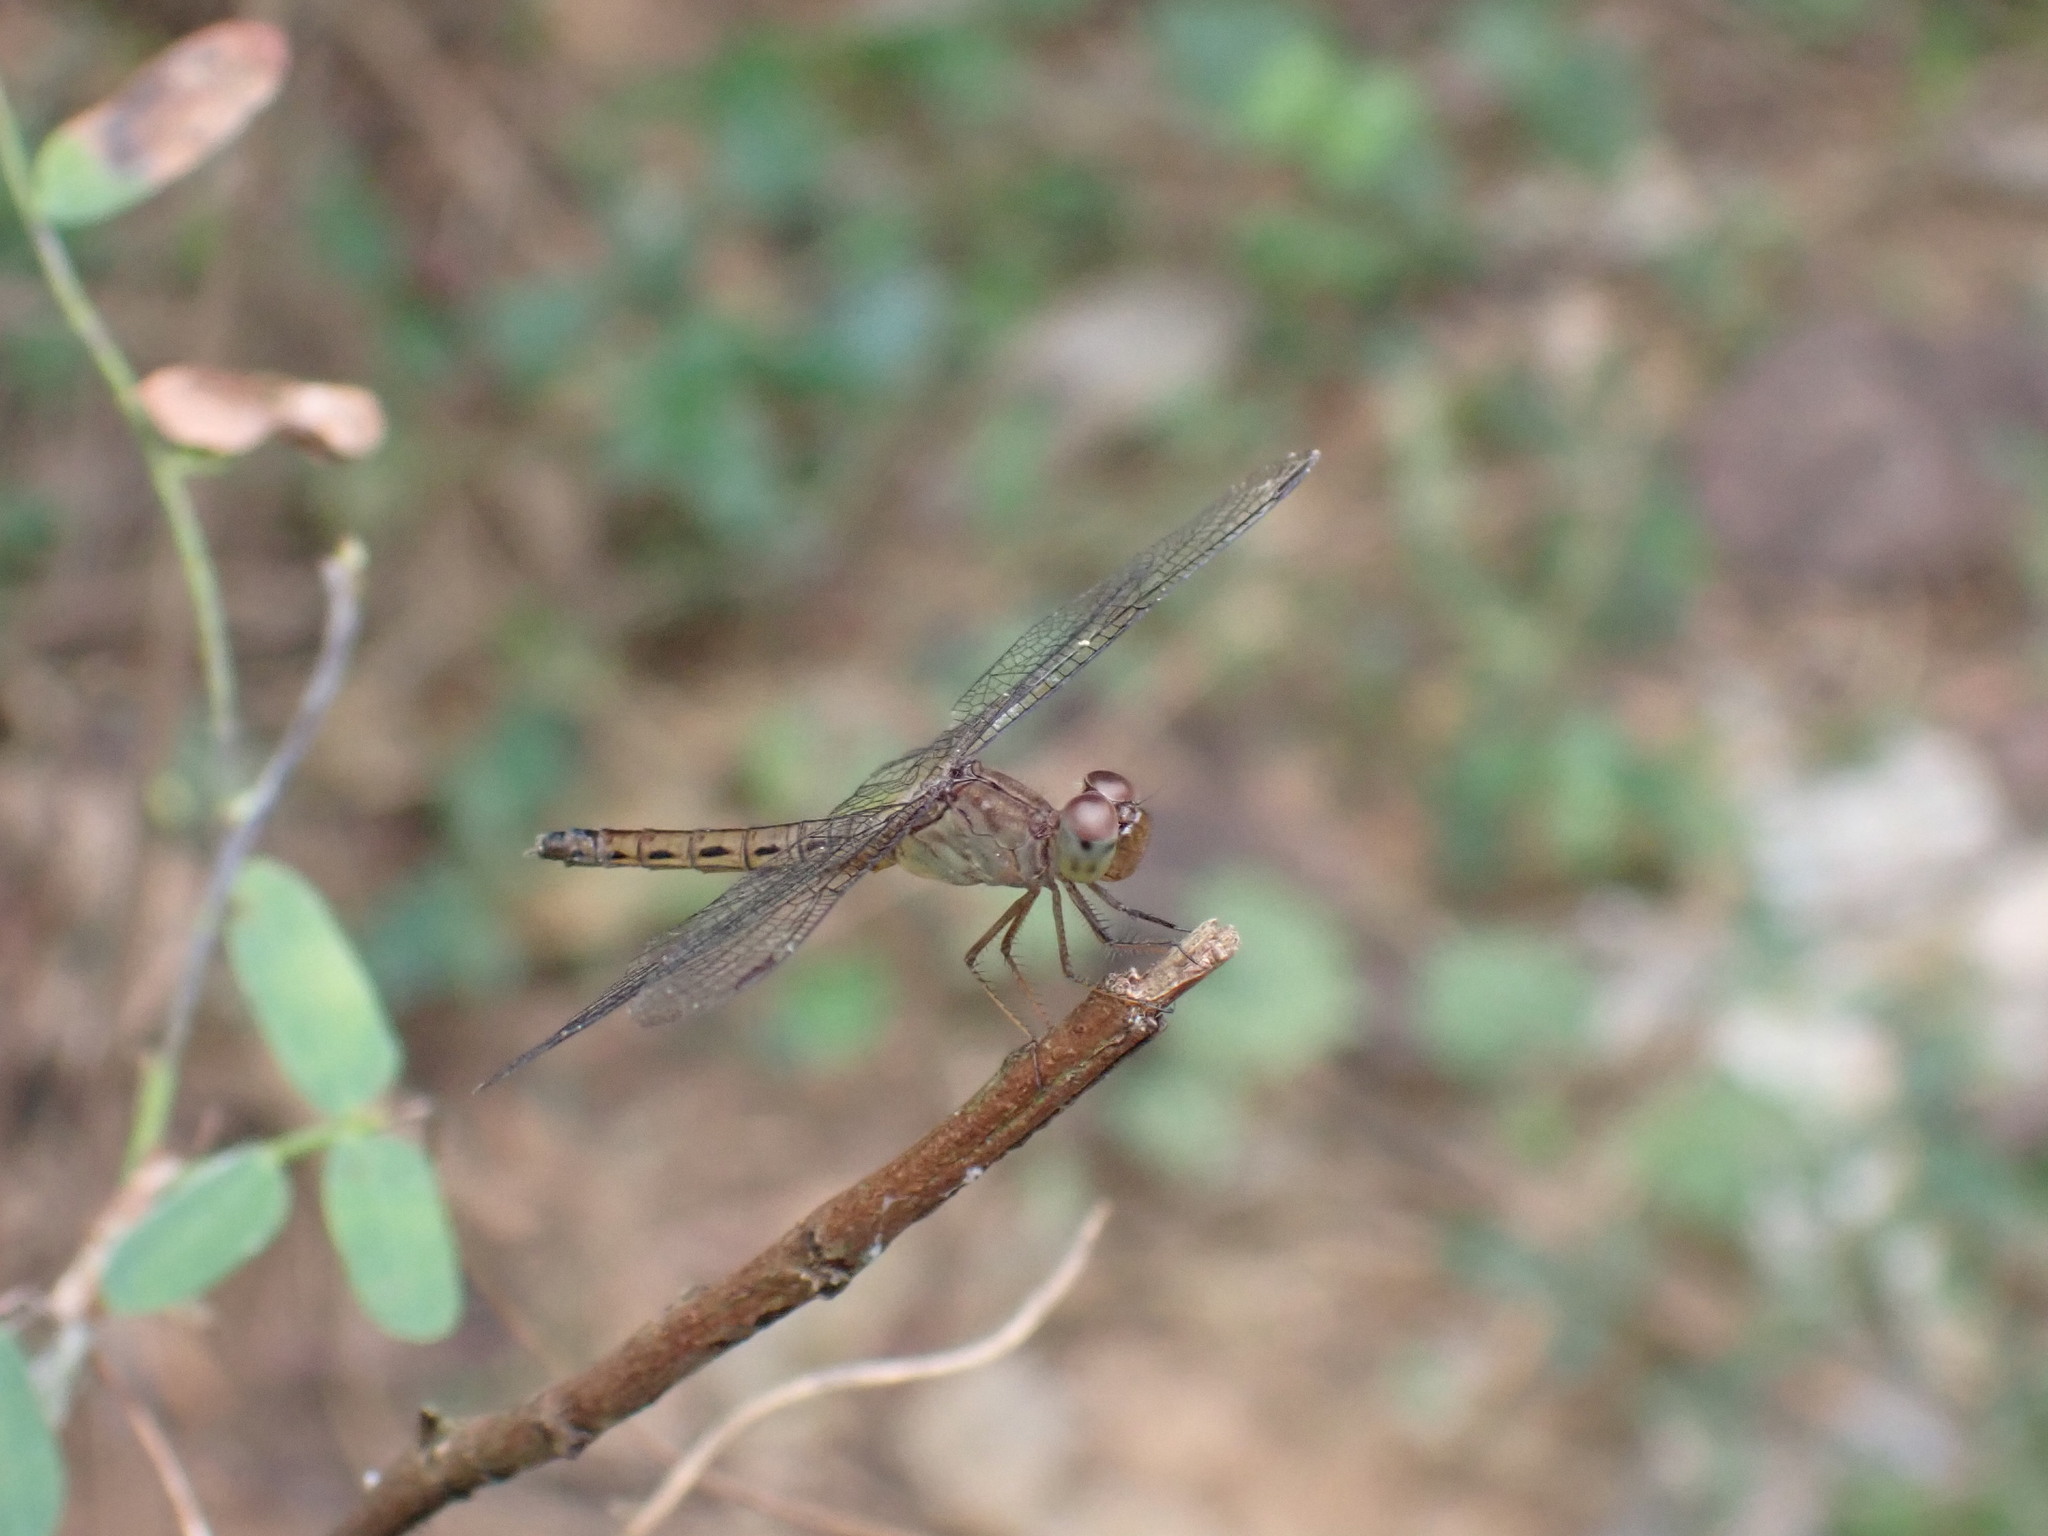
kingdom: Animalia
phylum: Arthropoda
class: Insecta
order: Odonata
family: Libellulidae
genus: Neurothemis
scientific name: Neurothemis fluctuans
